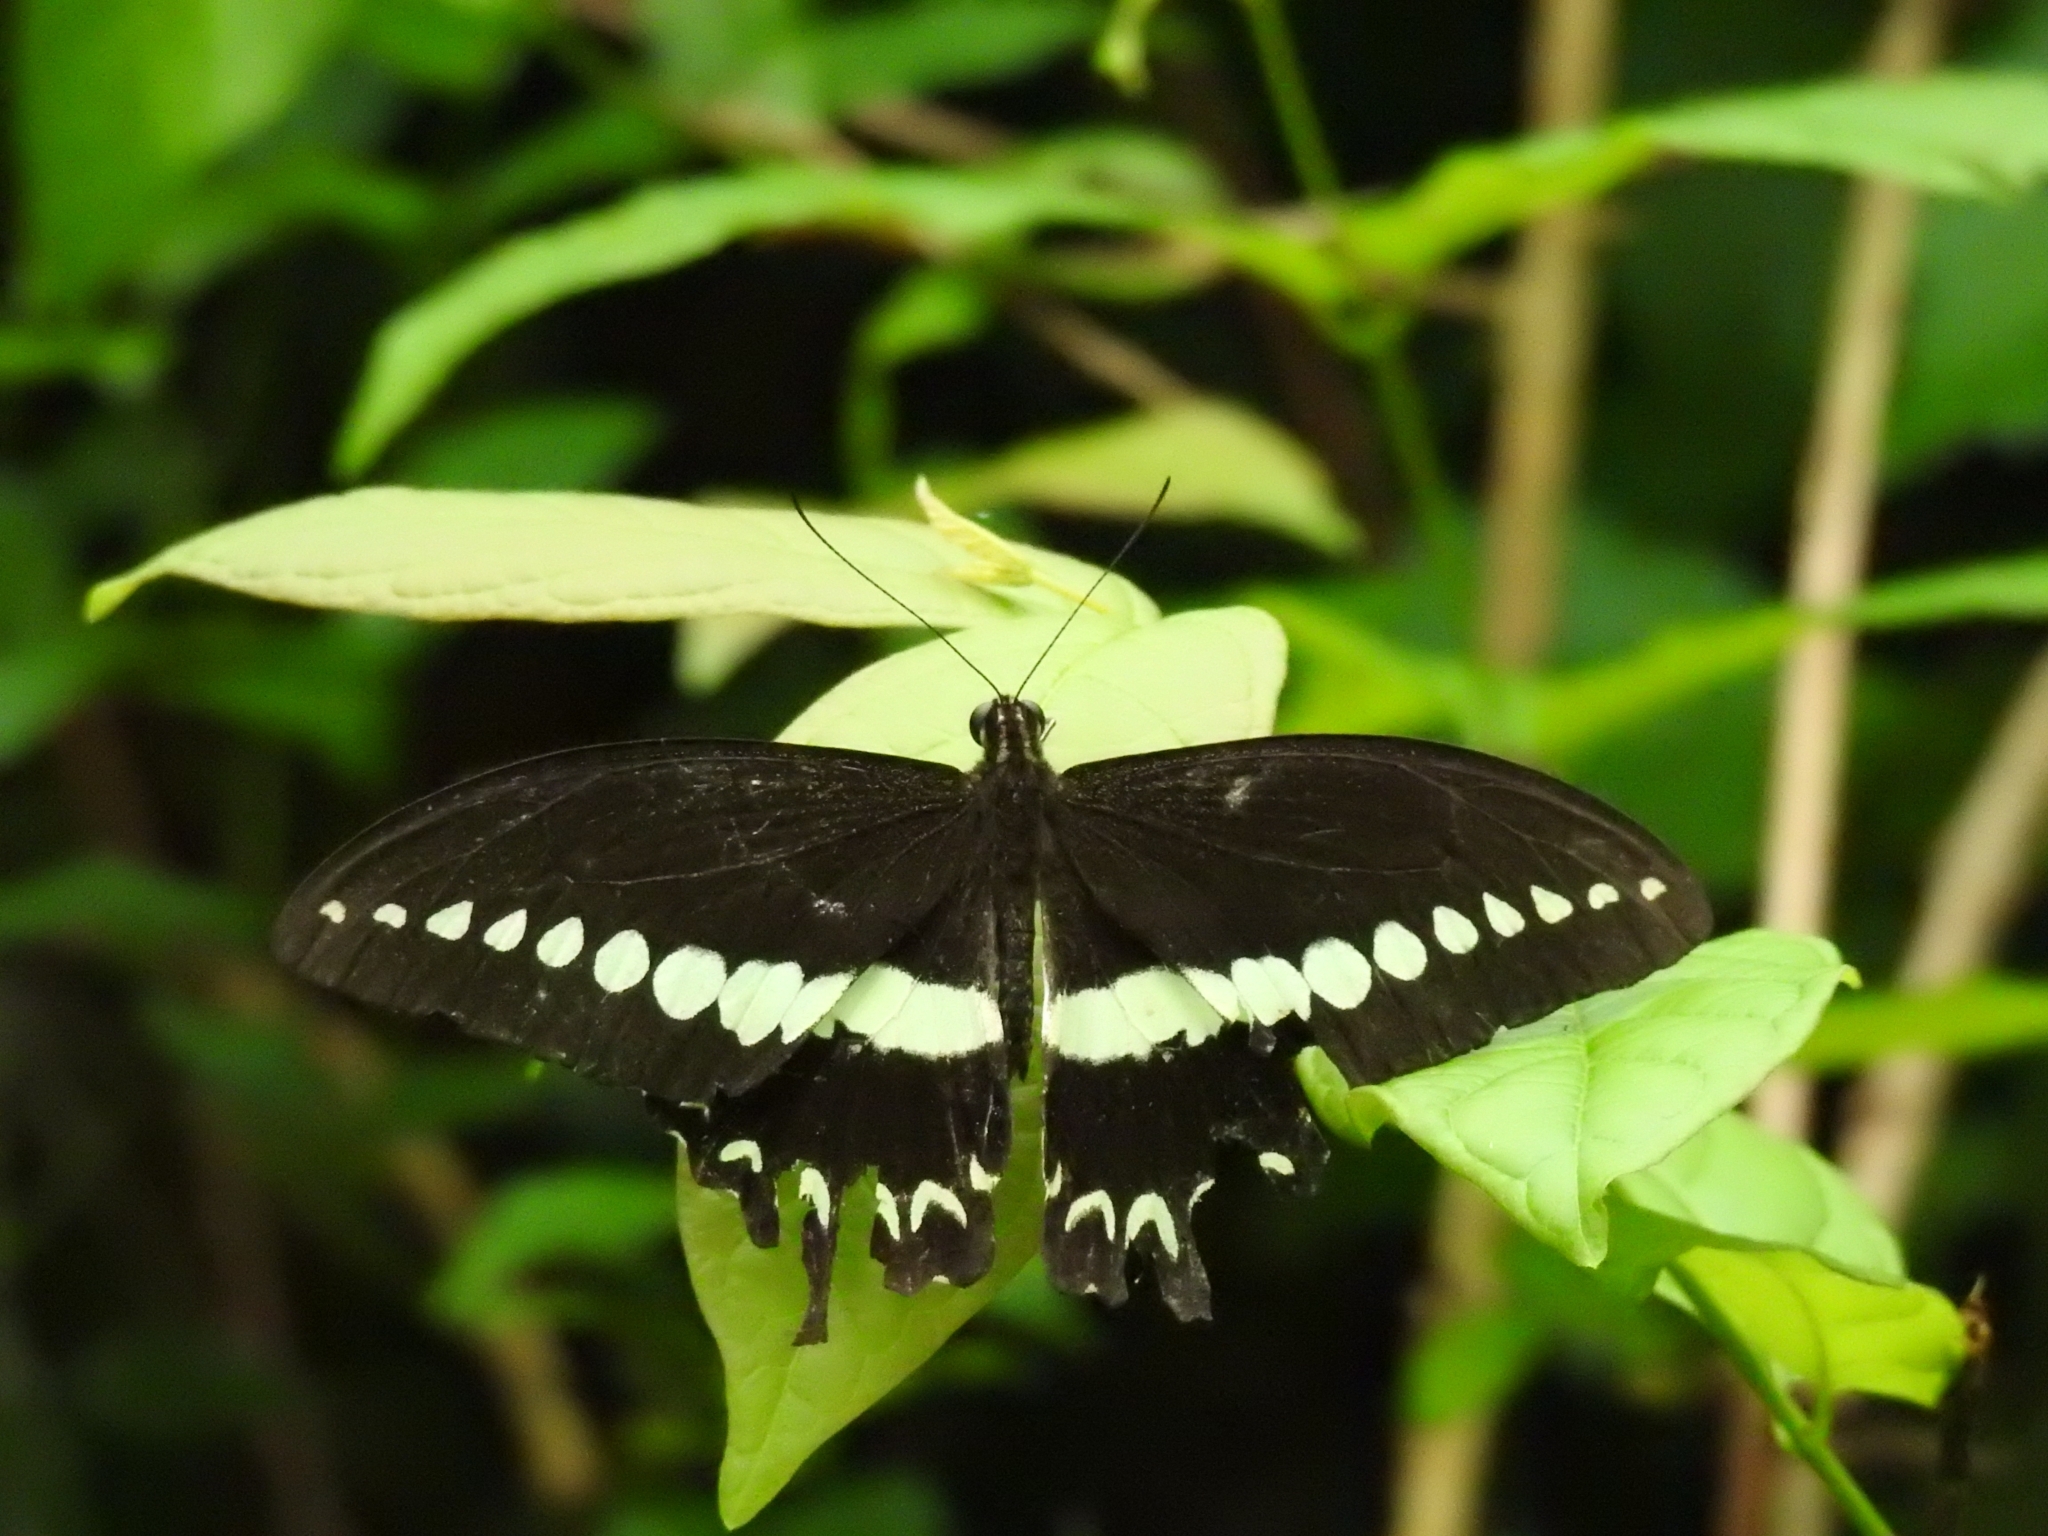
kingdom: Animalia
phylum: Arthropoda
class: Insecta
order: Lepidoptera
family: Papilionidae
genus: Papilio
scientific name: Papilio liomedon
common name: Malabar banded swallowtail
